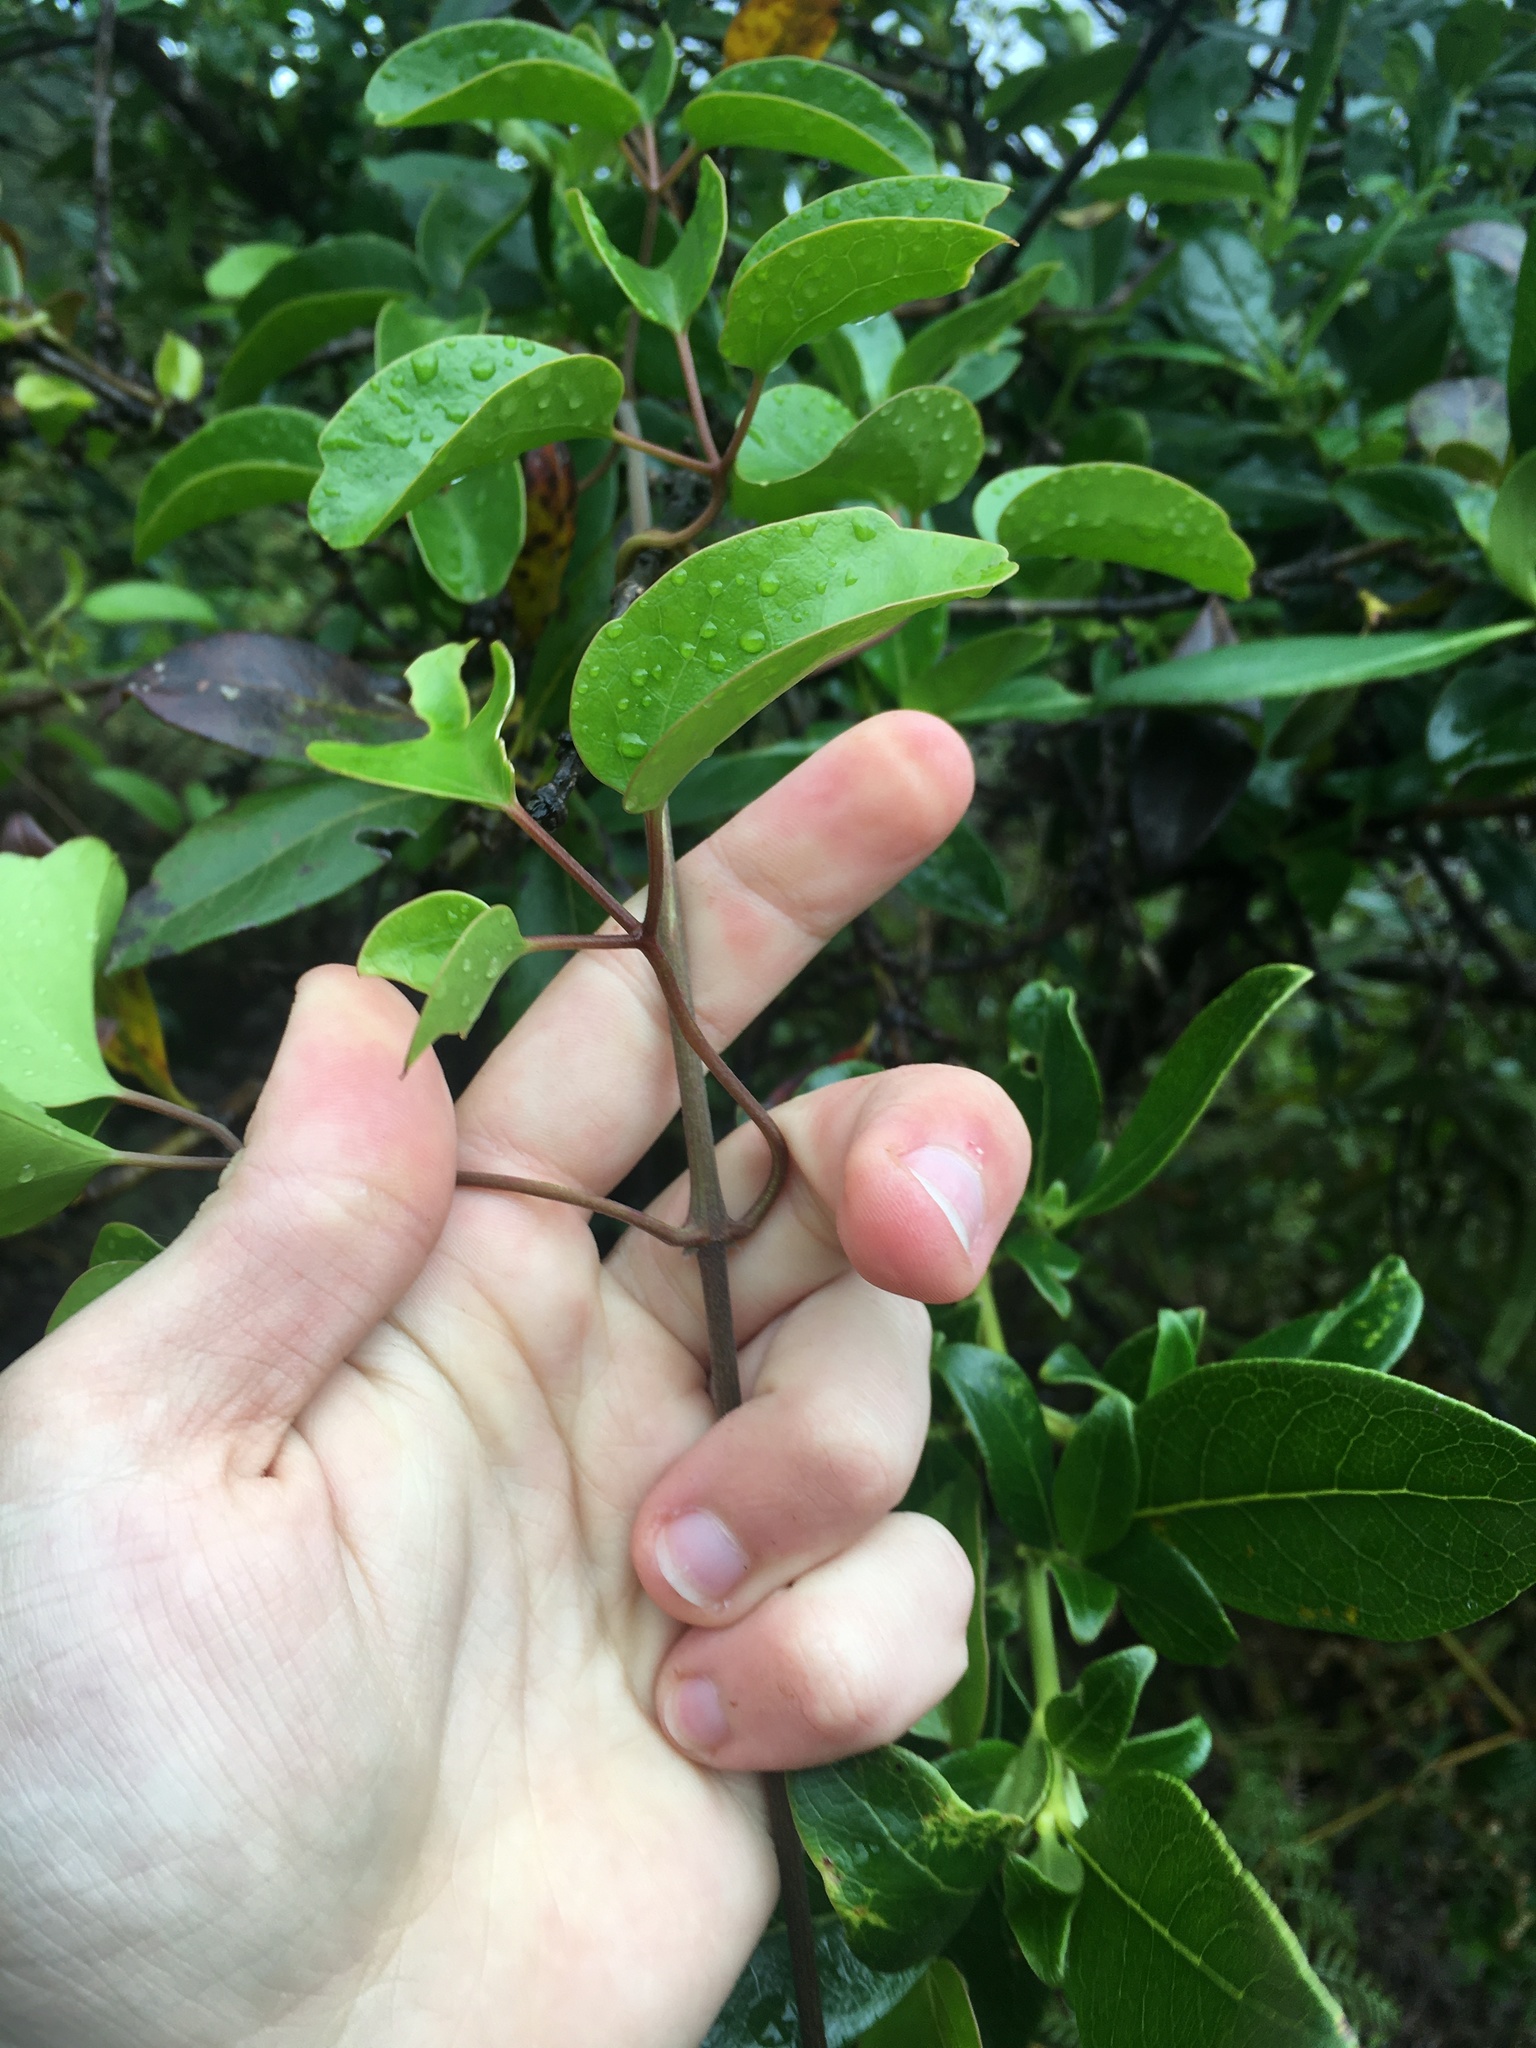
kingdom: Plantae
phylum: Tracheophyta
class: Magnoliopsida
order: Ranunculales
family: Ranunculaceae
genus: Clematis
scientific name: Clematis paniculata
